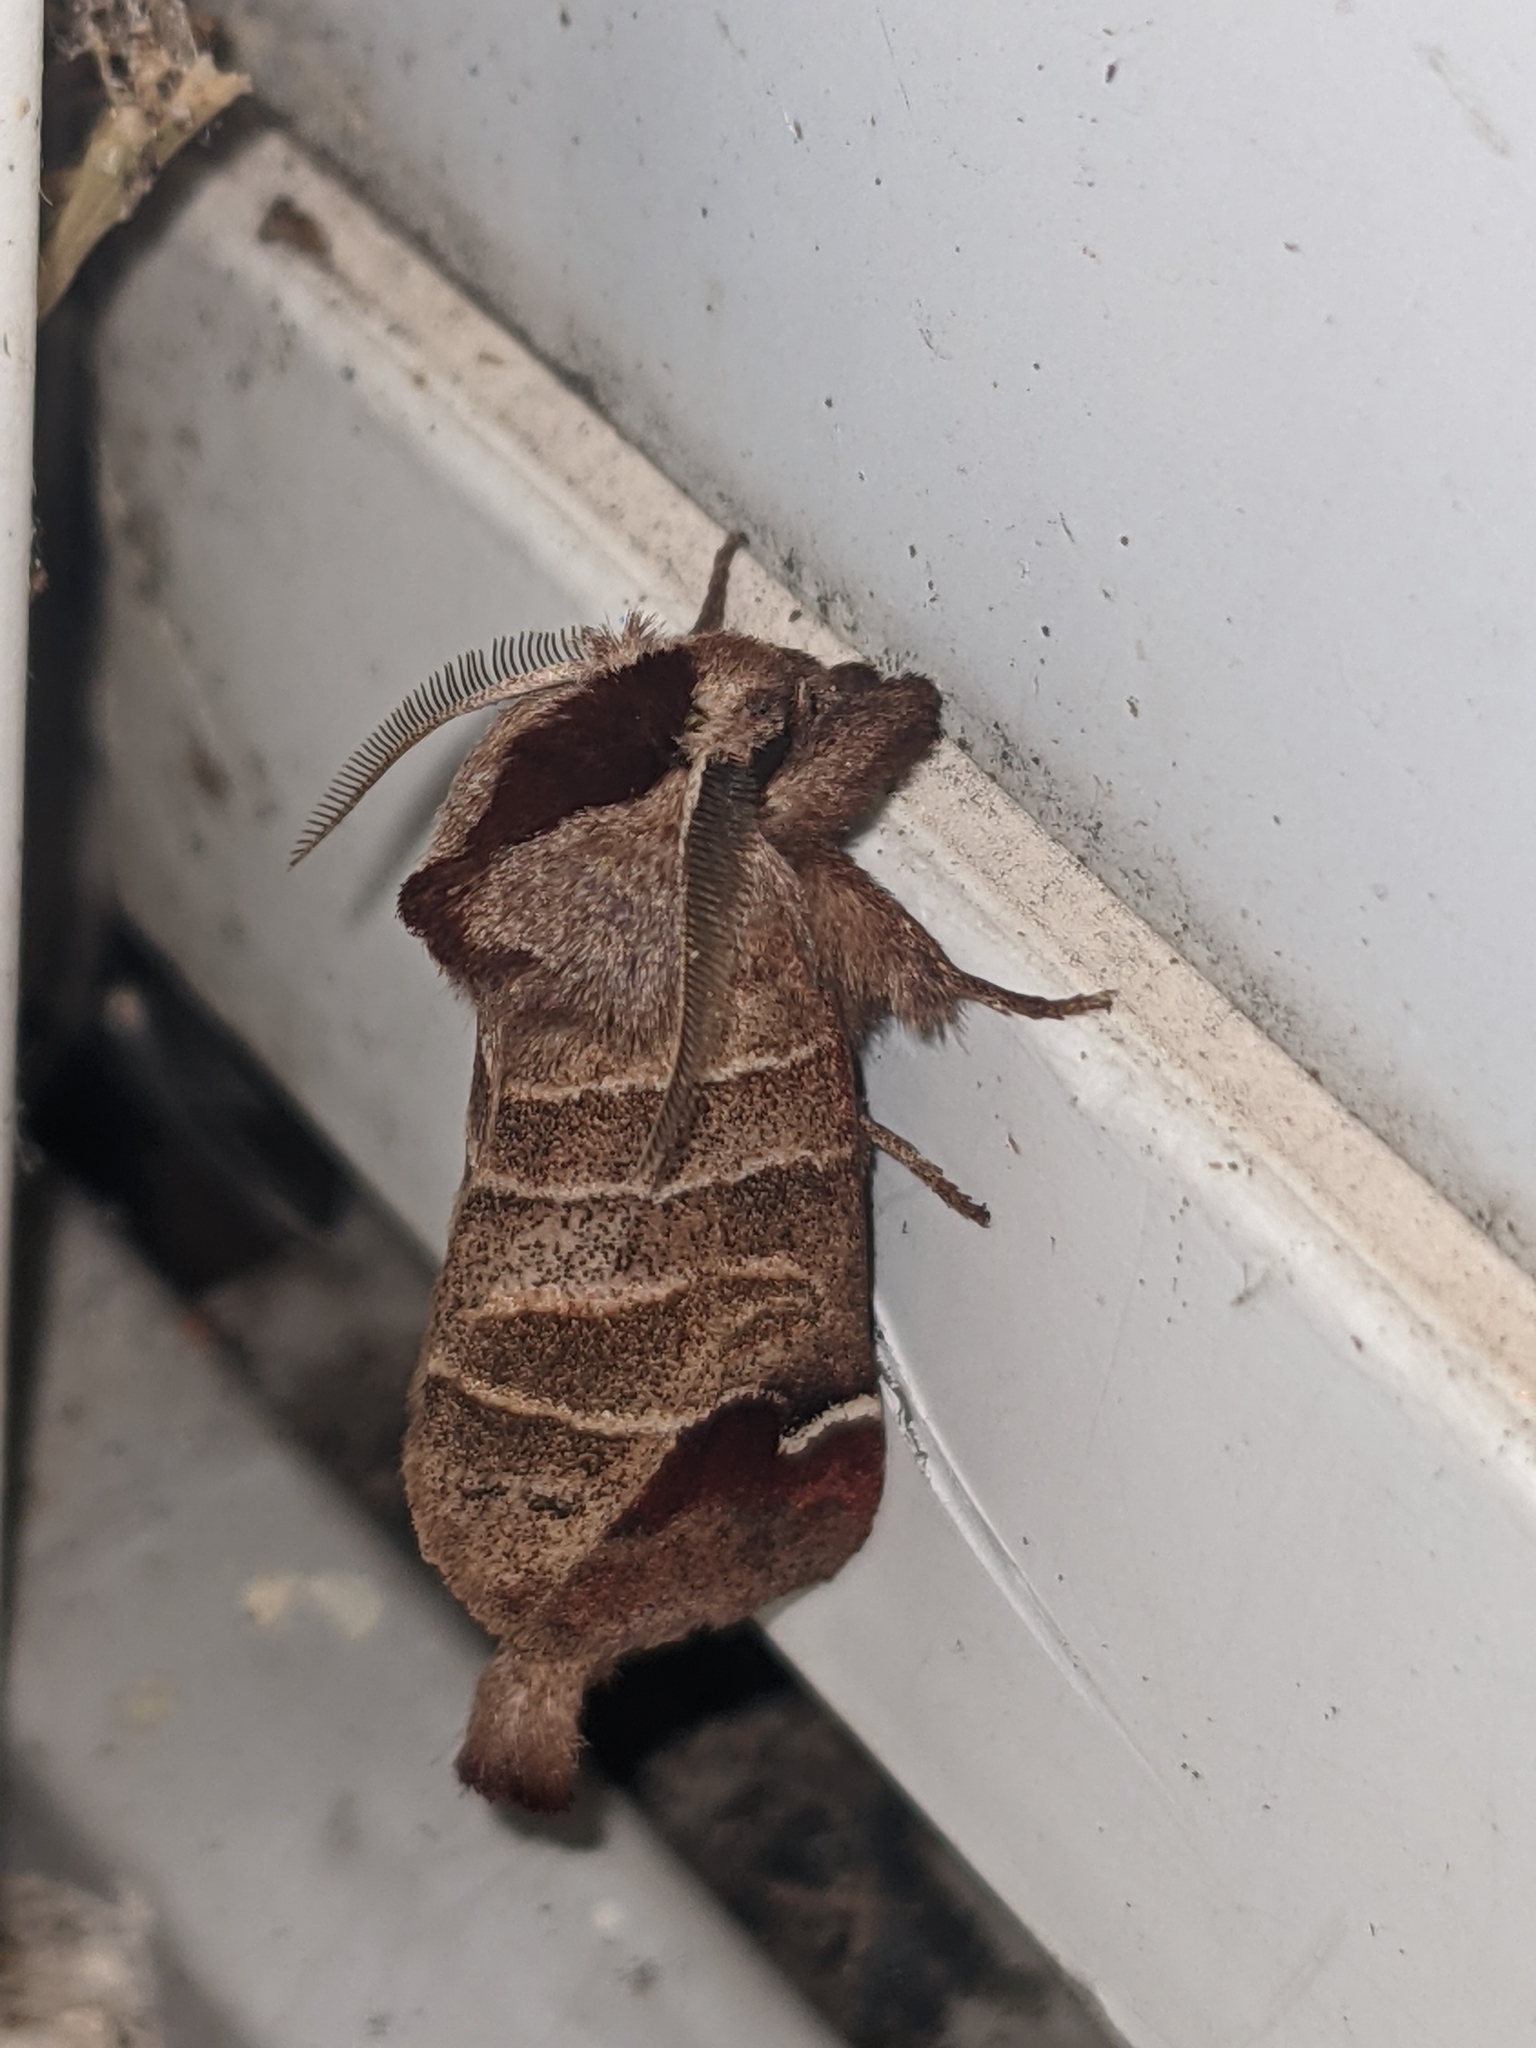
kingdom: Animalia
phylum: Arthropoda
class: Insecta
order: Lepidoptera
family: Notodontidae
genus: Clostera
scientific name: Clostera albosigma
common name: Sigmoid prominent
